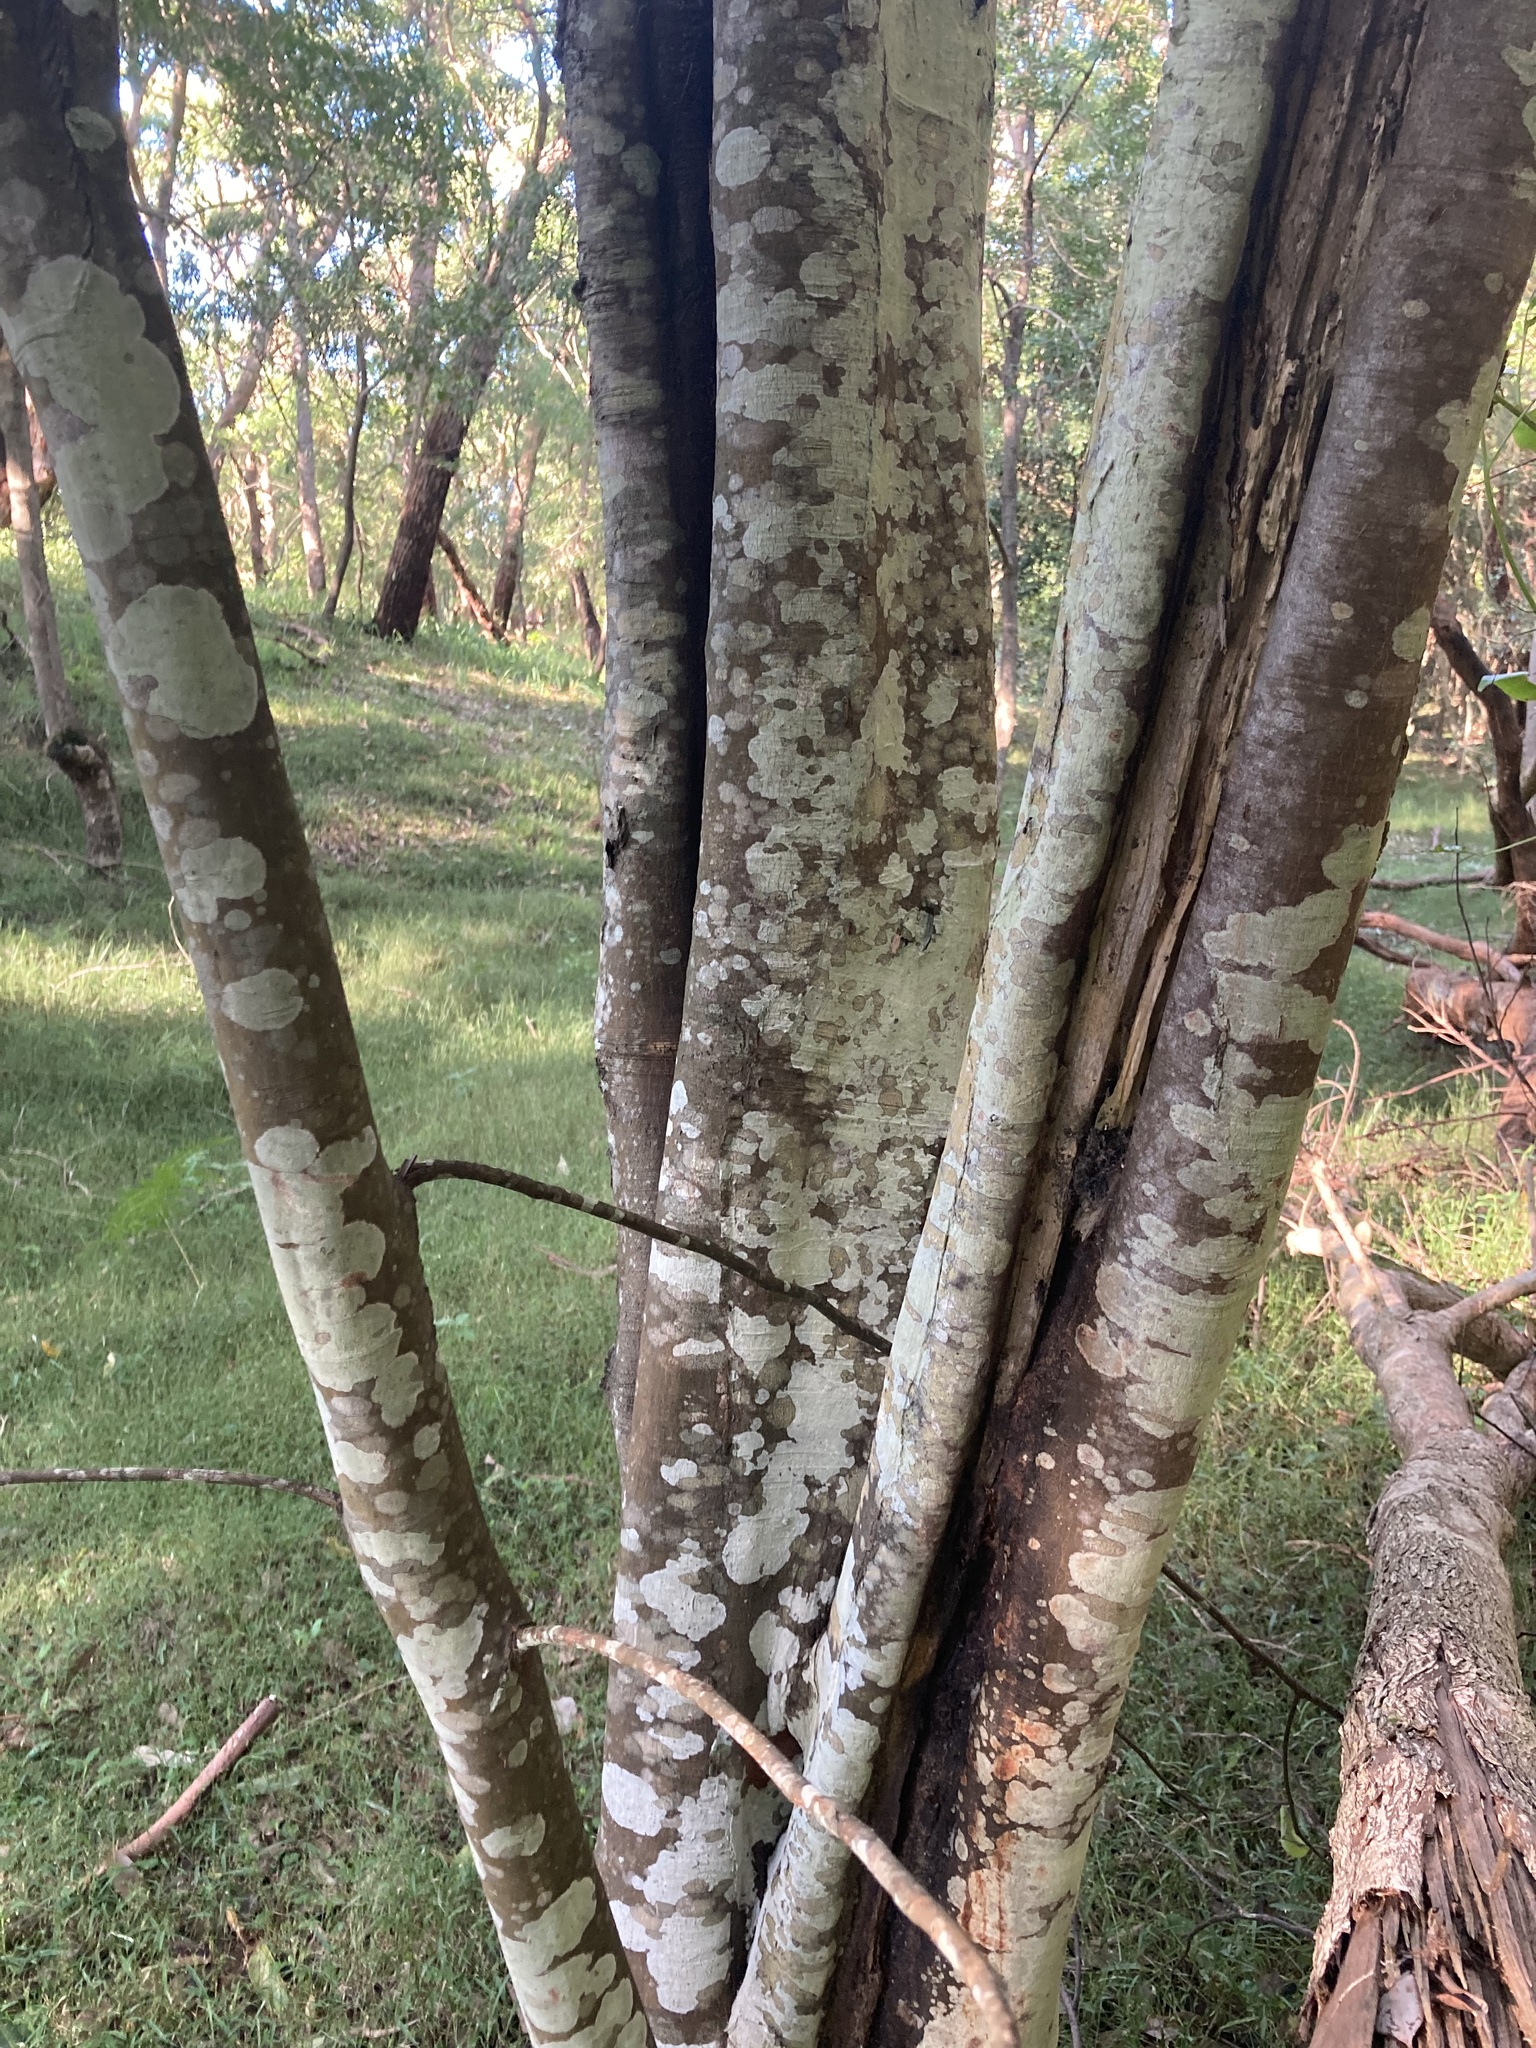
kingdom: Plantae
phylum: Tracheophyta
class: Magnoliopsida
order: Sapindales
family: Sapindaceae
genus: Guioa
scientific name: Guioa semiglauca
